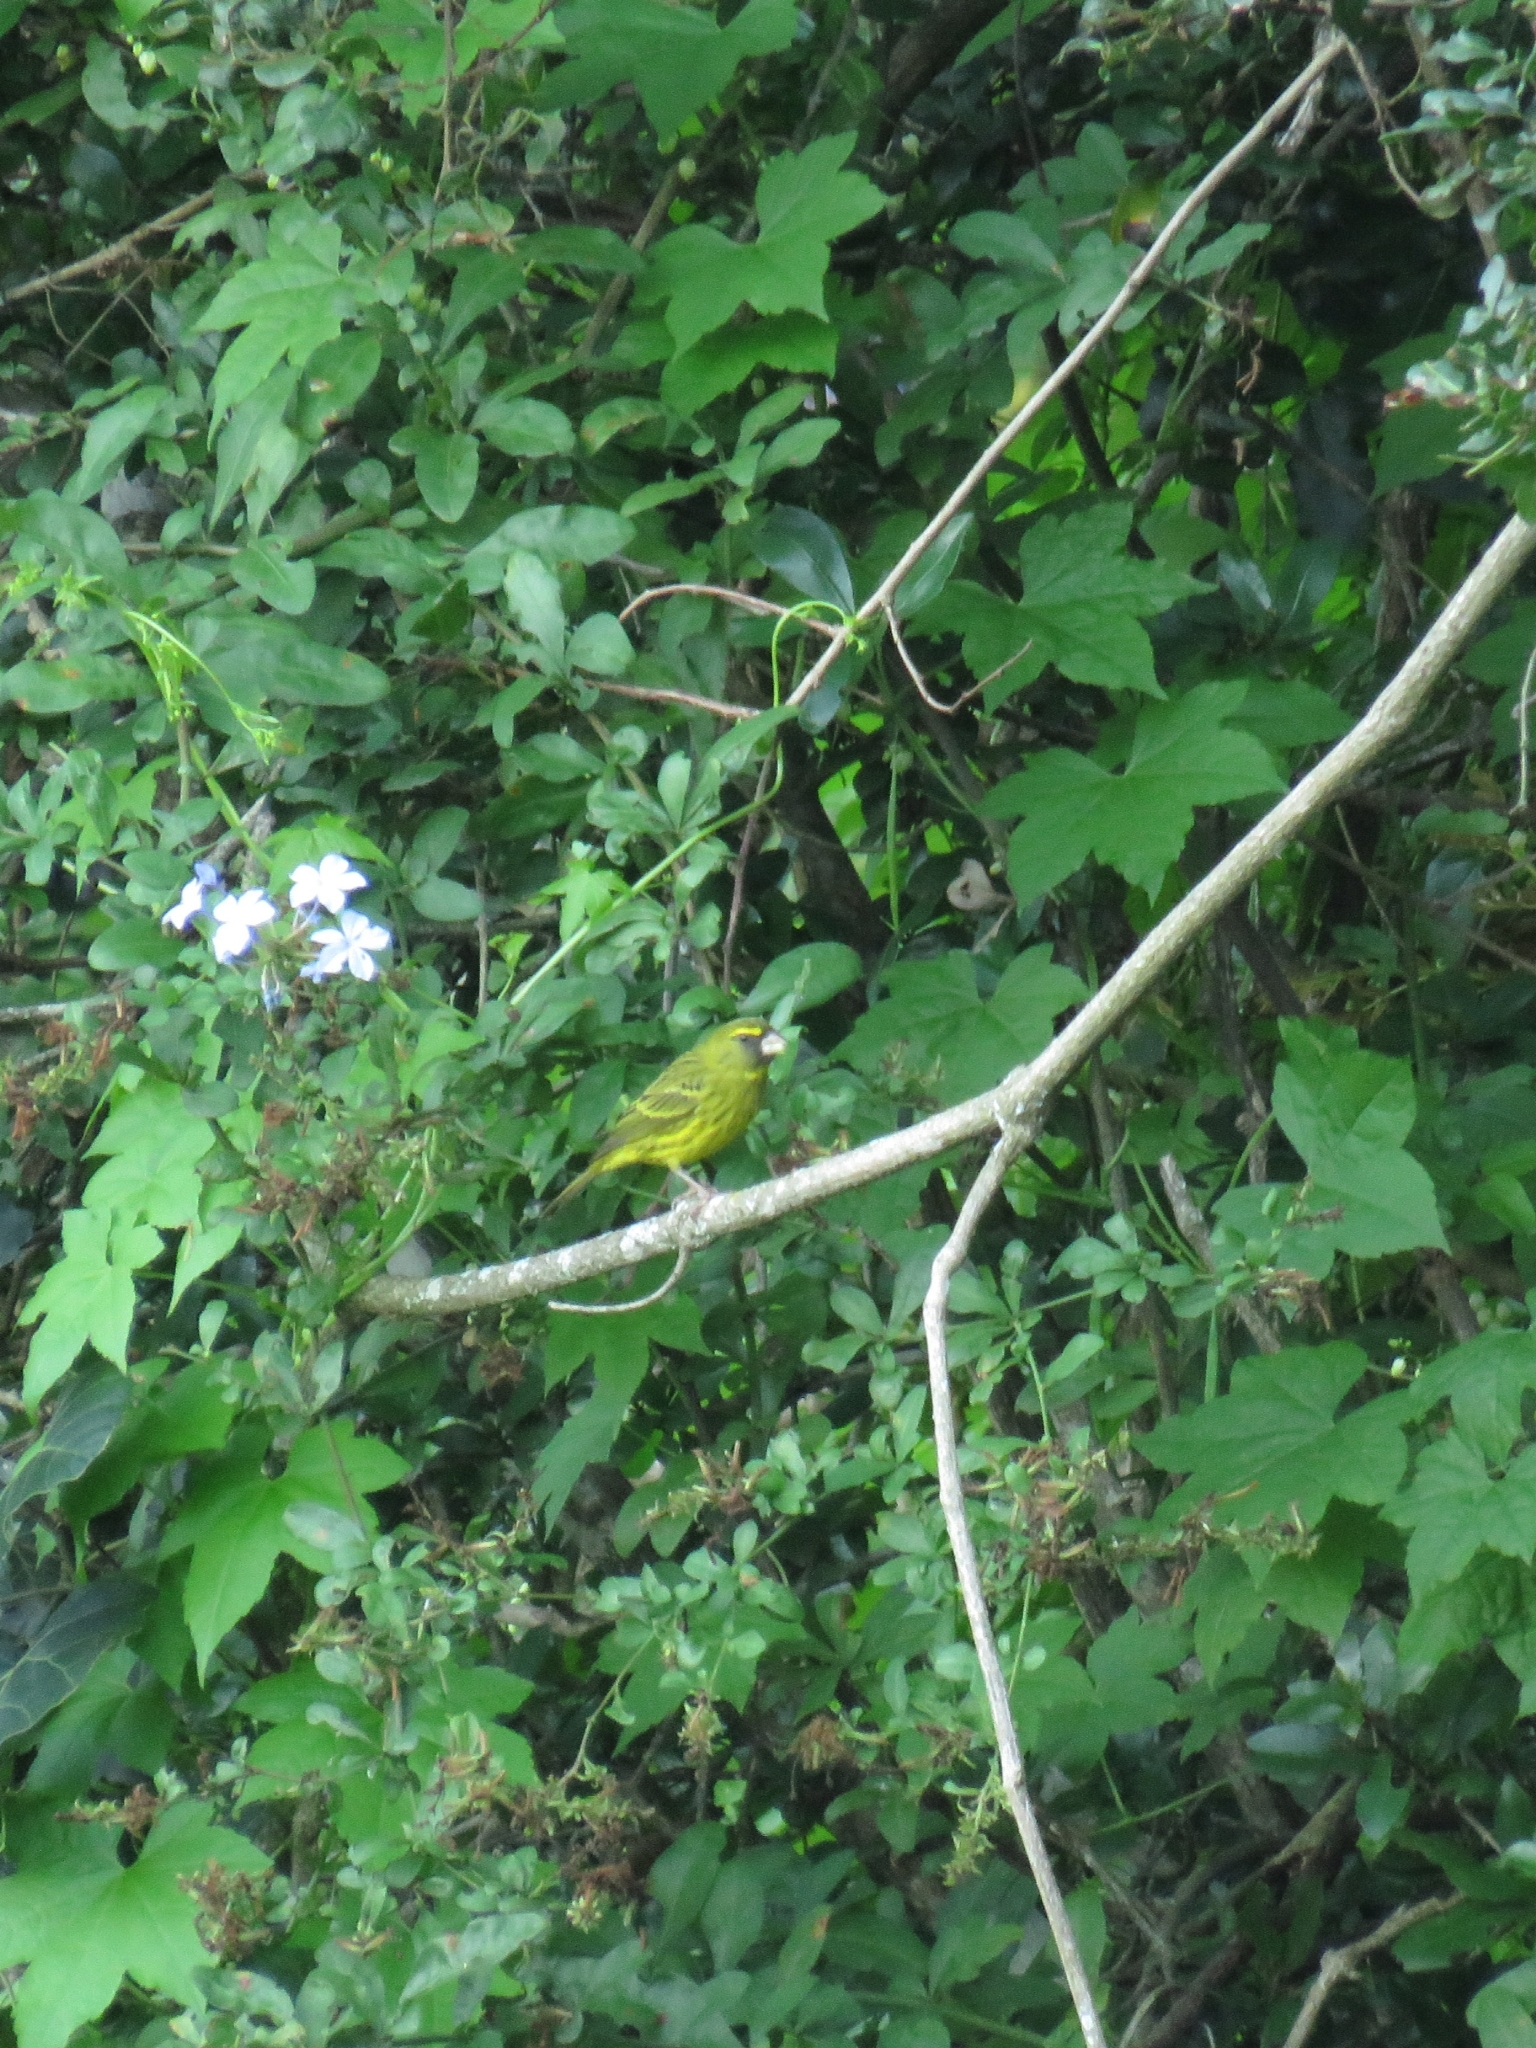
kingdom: Animalia
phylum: Chordata
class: Aves
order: Passeriformes
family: Fringillidae
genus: Crithagra
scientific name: Crithagra scotops
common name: Forest canary
